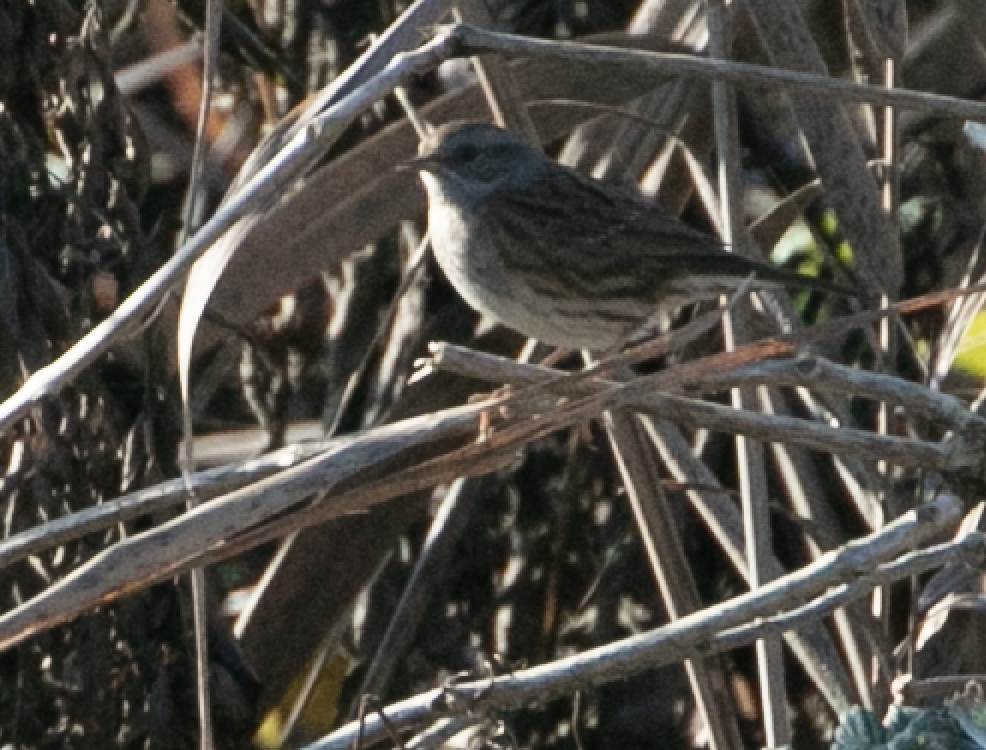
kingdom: Animalia
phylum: Chordata
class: Aves
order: Passeriformes
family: Prunellidae
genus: Prunella
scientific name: Prunella modularis
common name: Dunnock
